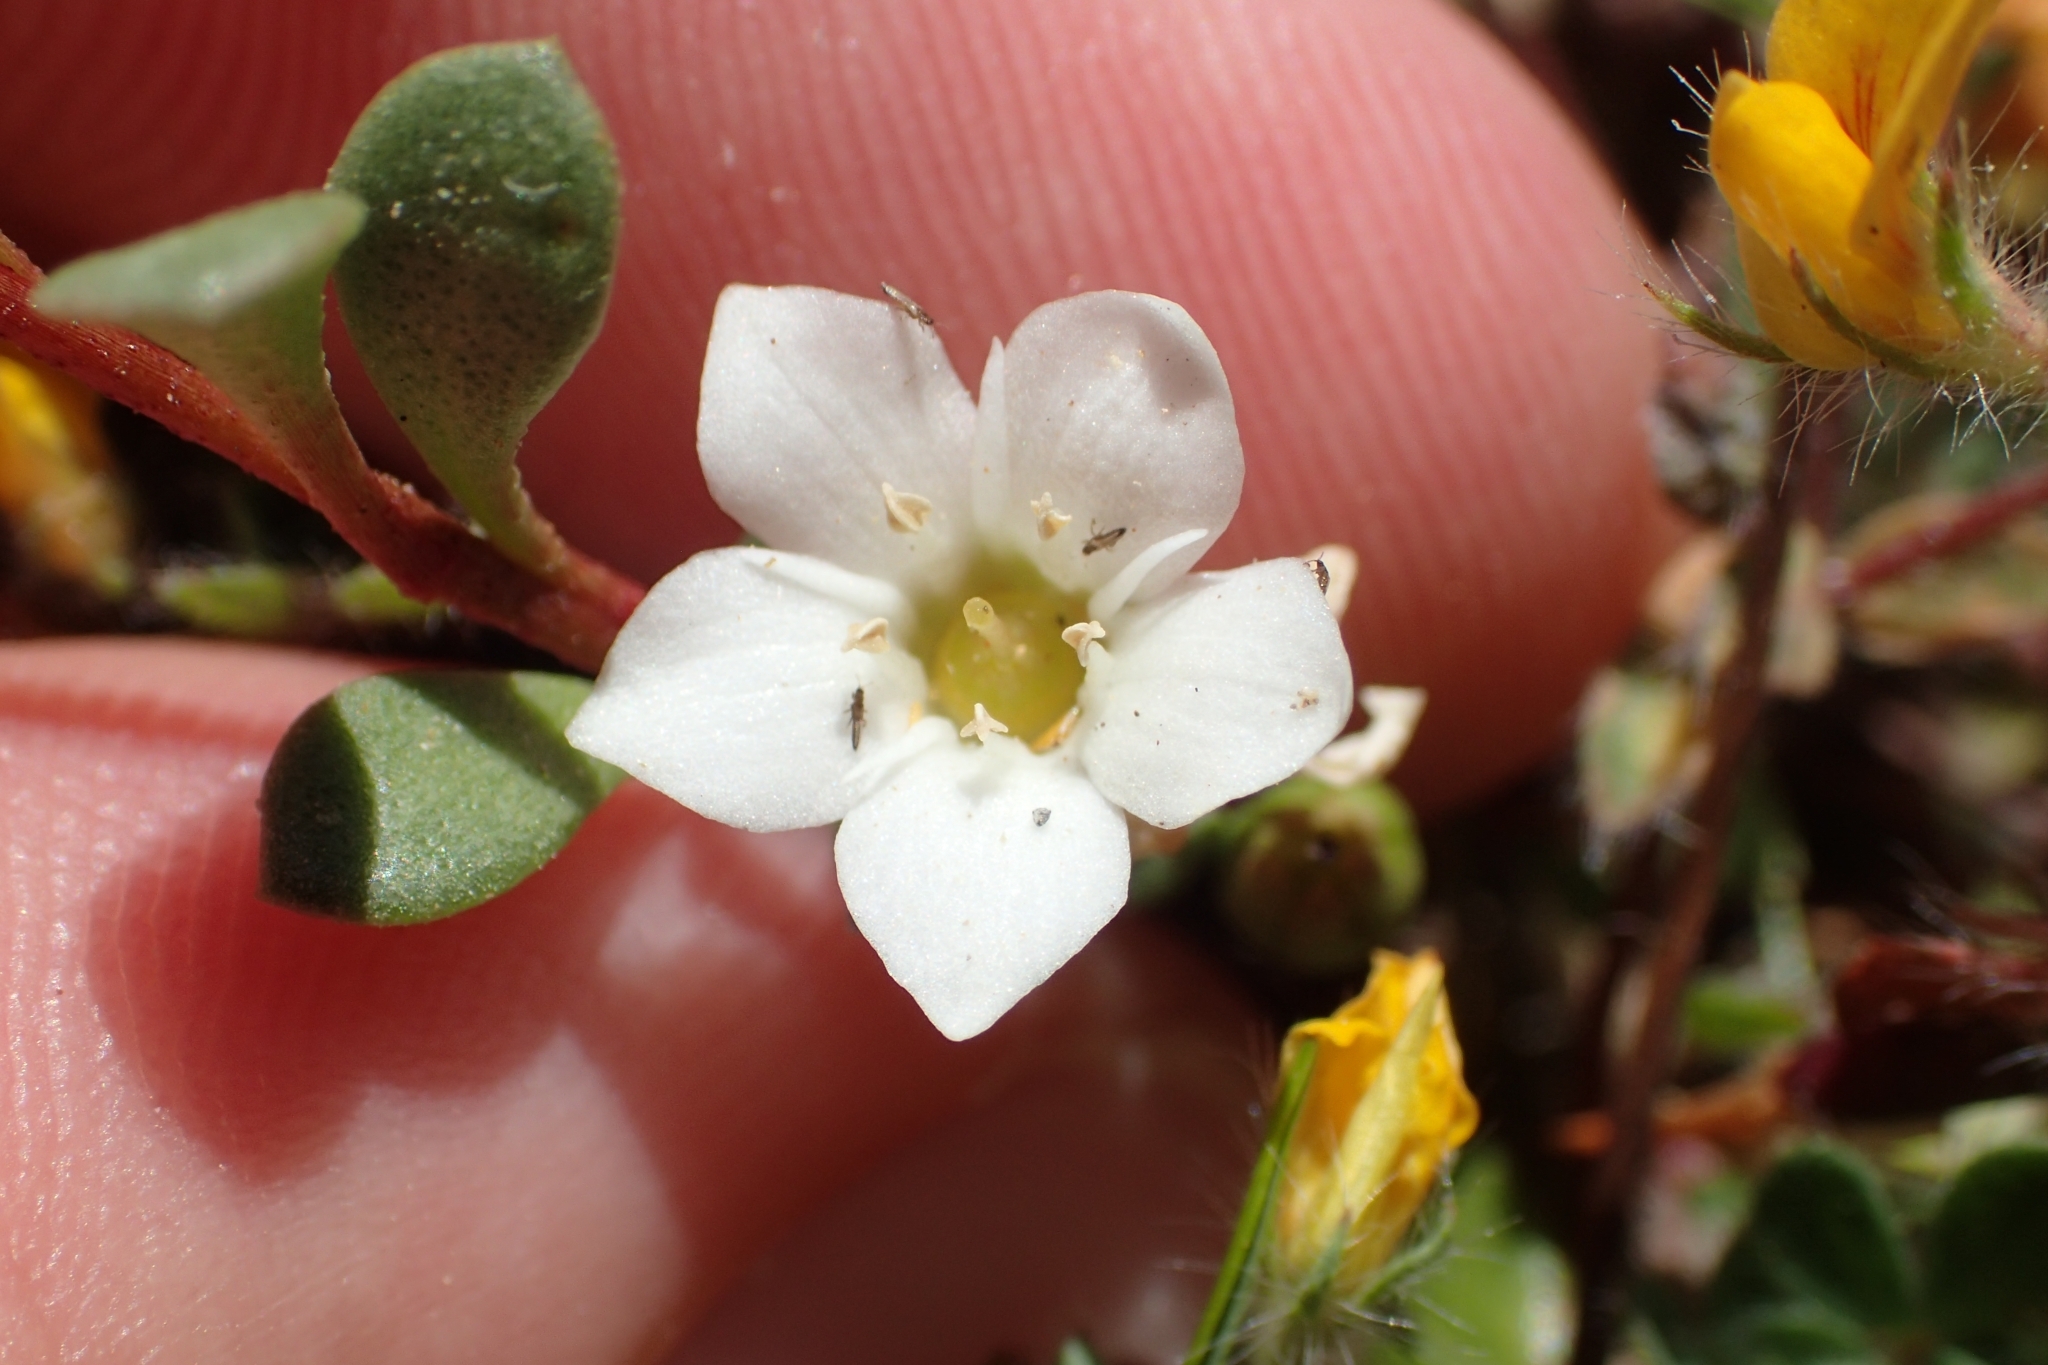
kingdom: Plantae
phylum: Tracheophyta
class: Magnoliopsida
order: Ericales
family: Primulaceae
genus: Samolus
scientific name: Samolus repens
